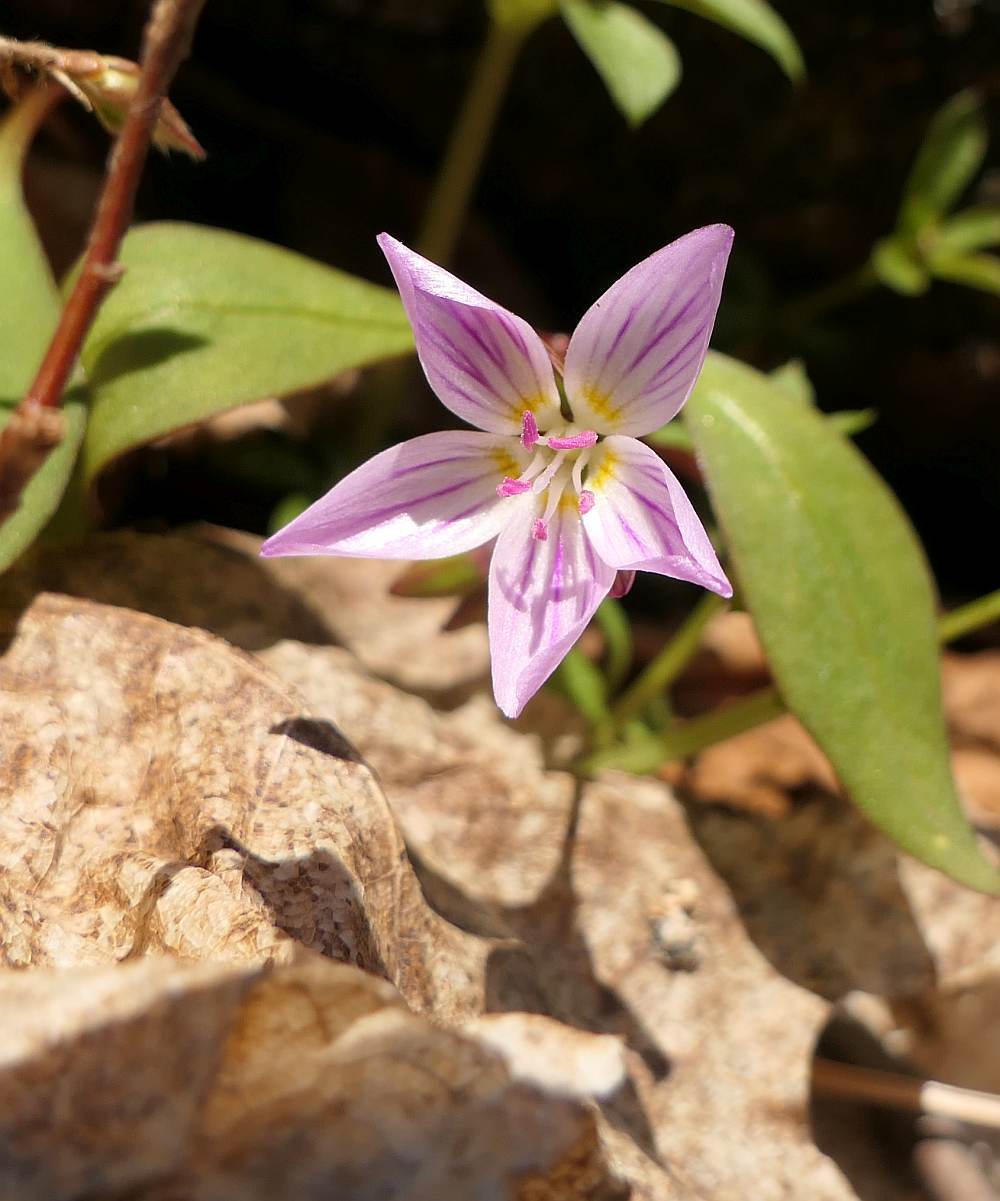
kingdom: Plantae
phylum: Tracheophyta
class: Magnoliopsida
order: Caryophyllales
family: Montiaceae
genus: Claytonia
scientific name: Claytonia caroliniana
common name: Carolina spring beauty
